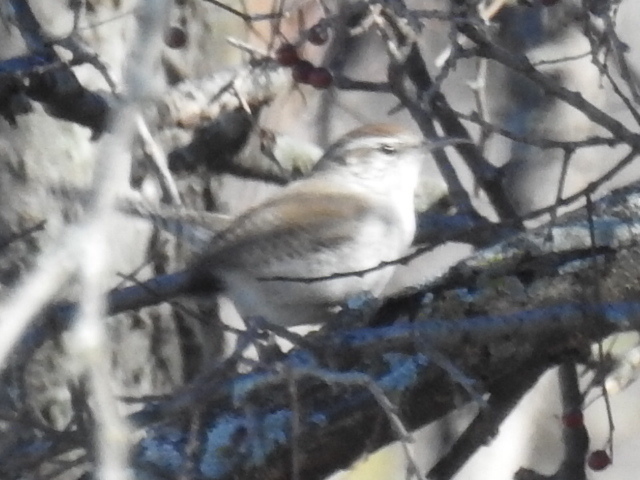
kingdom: Animalia
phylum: Chordata
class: Aves
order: Passeriformes
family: Troglodytidae
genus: Thryomanes
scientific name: Thryomanes bewickii
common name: Bewick's wren
